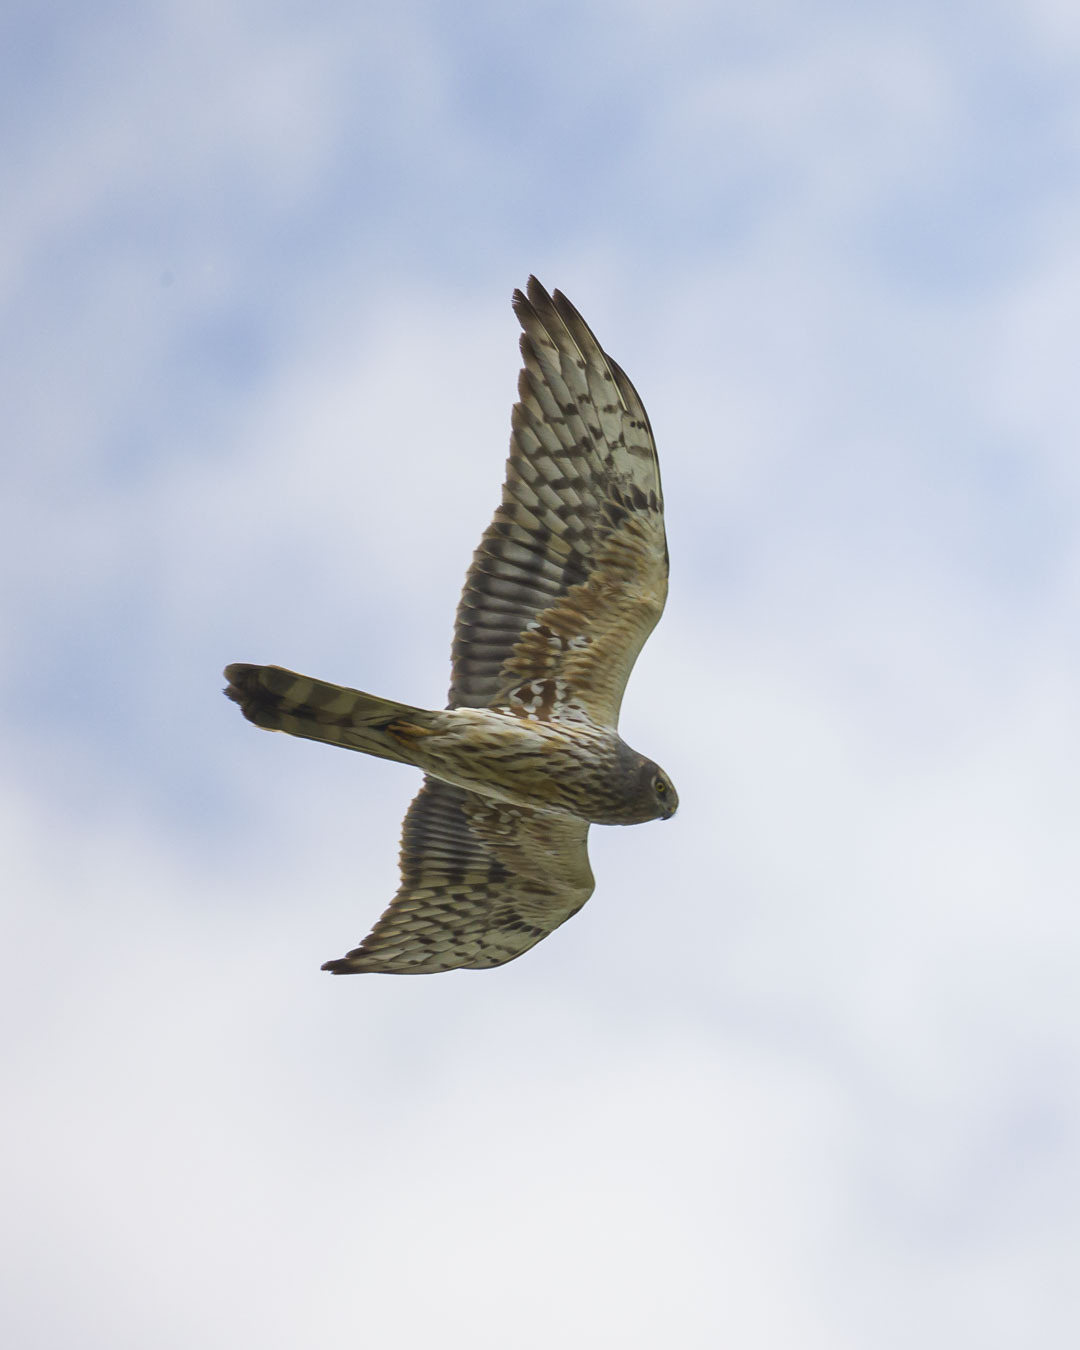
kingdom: Animalia
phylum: Chordata
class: Aves
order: Accipitriformes
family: Accipitridae
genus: Circus
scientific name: Circus pygargus
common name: Montagu's harrier
